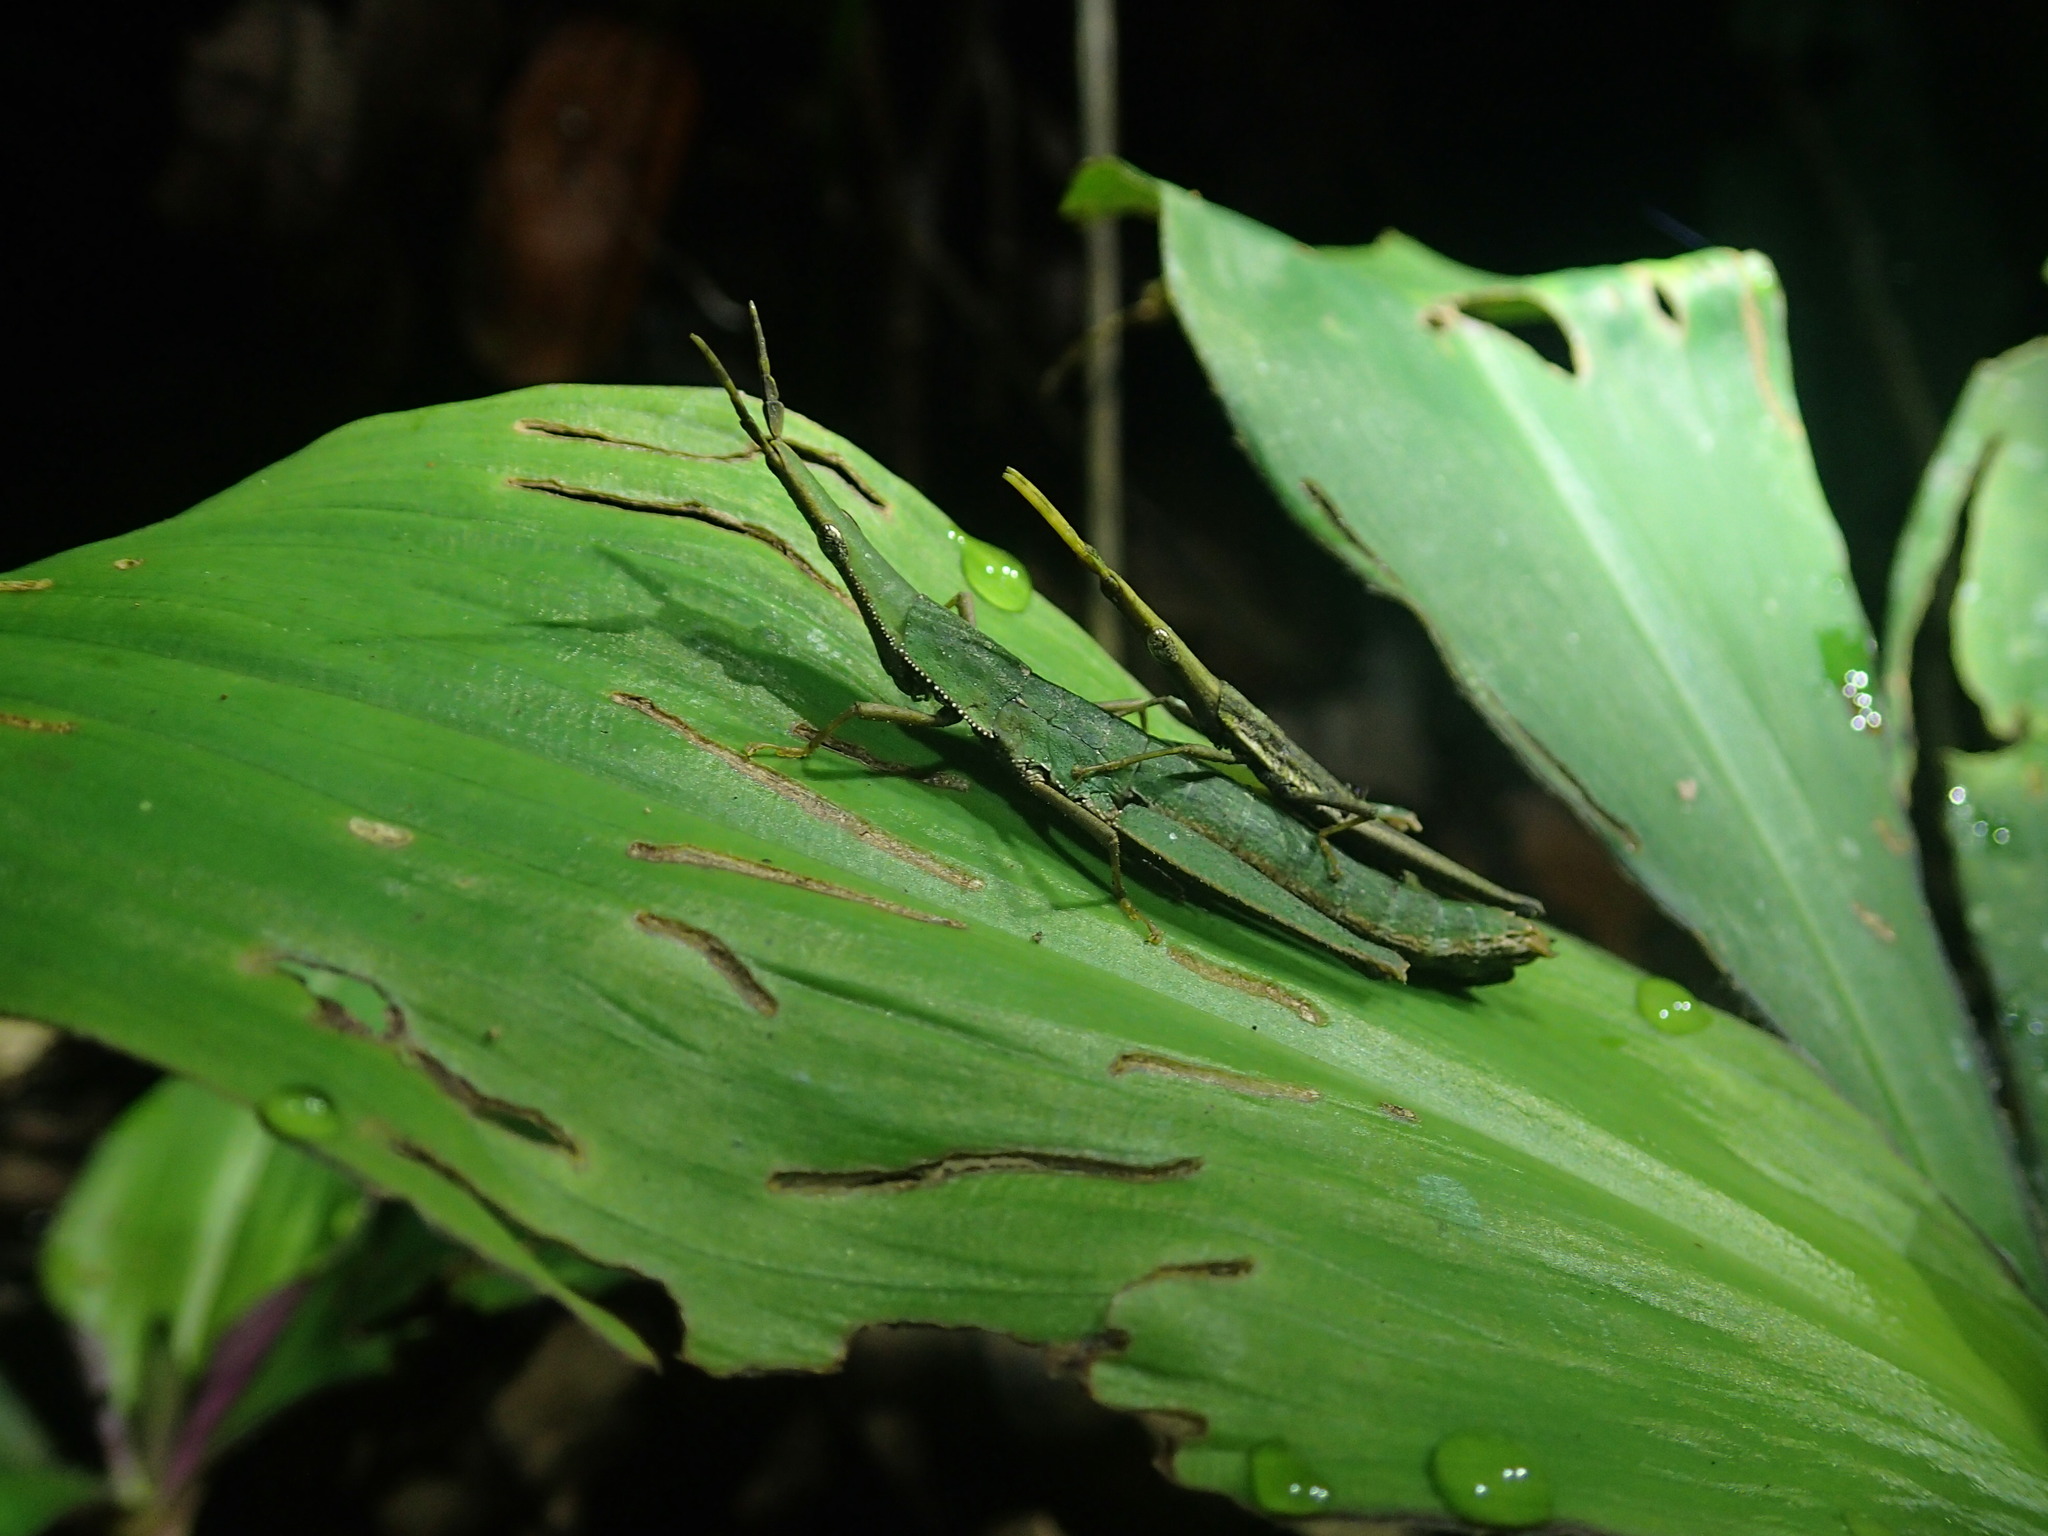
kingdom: Animalia
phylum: Arthropoda
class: Insecta
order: Orthoptera
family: Pyrgomorphidae
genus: Omura
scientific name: Omura congrua
